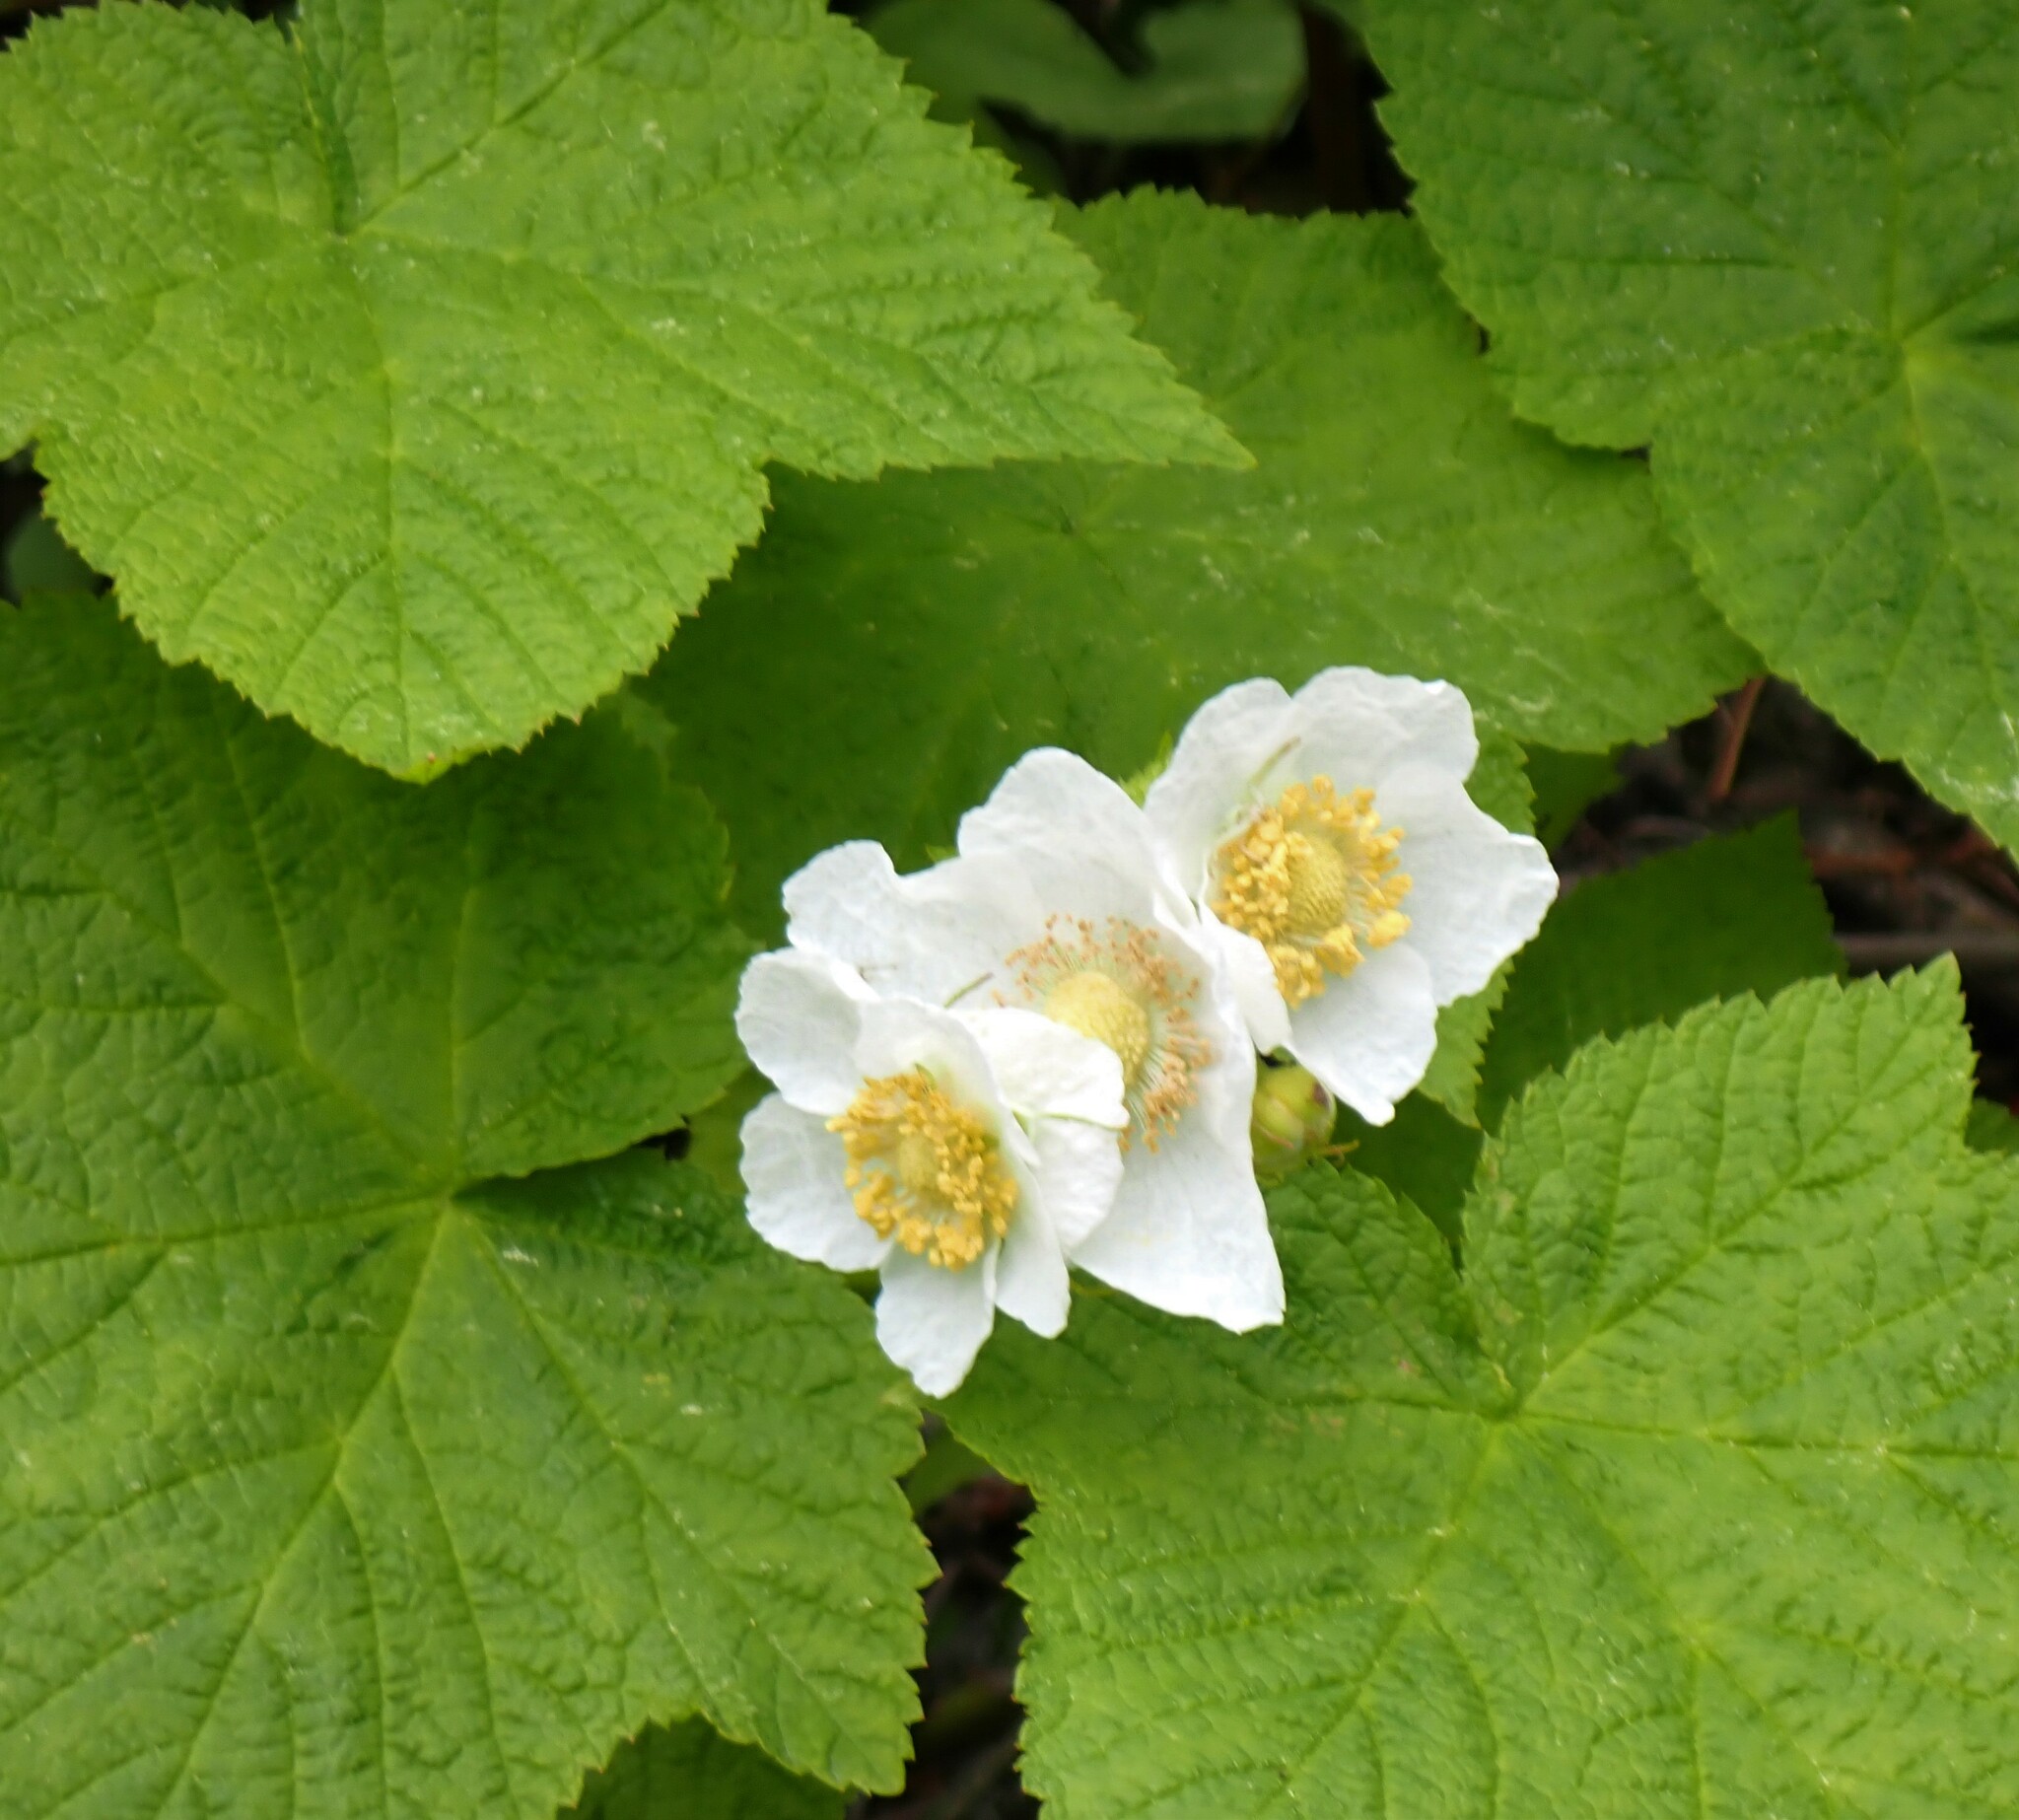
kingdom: Plantae
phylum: Tracheophyta
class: Magnoliopsida
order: Rosales
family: Rosaceae
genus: Rubus
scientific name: Rubus parviflorus
